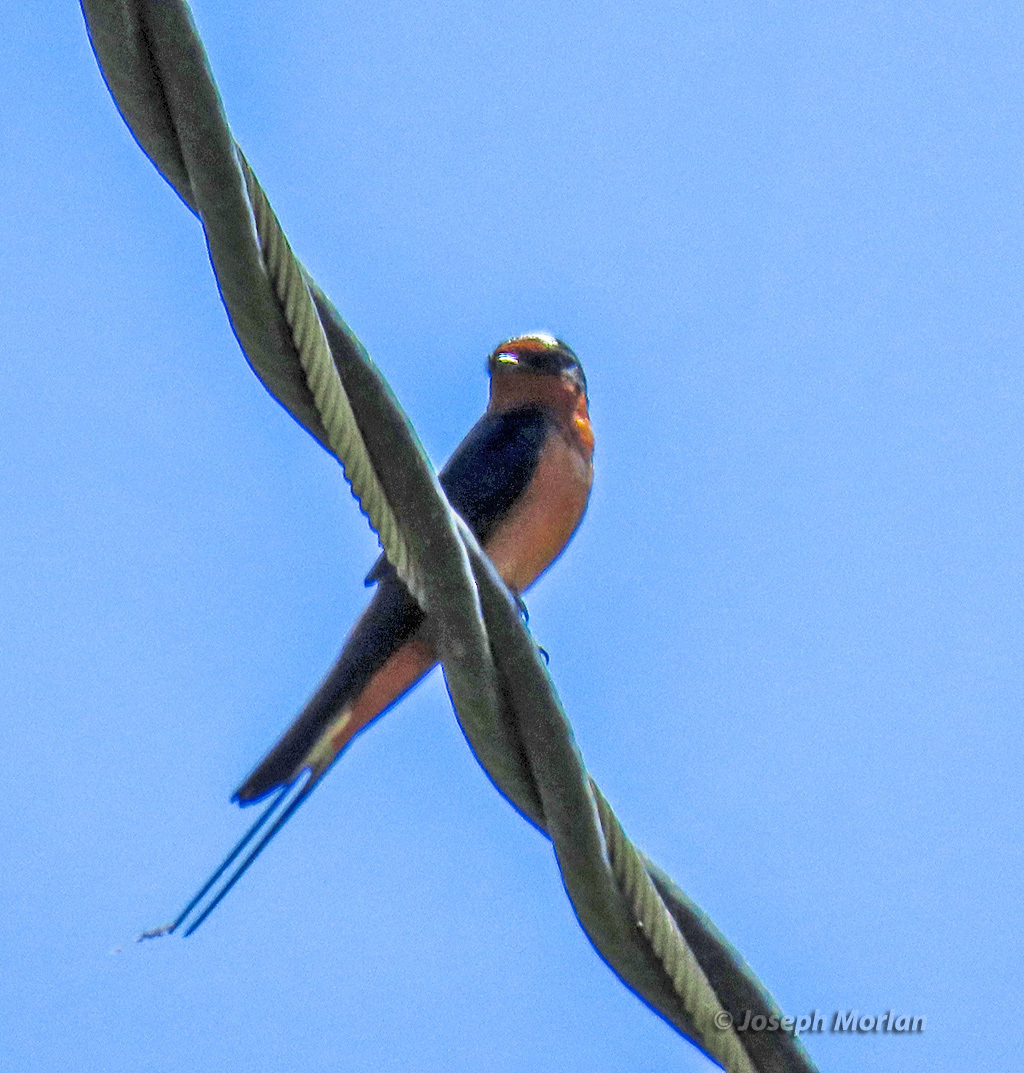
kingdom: Animalia
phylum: Chordata
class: Aves
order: Passeriformes
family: Hirundinidae
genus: Hirundo
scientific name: Hirundo rustica
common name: Barn swallow
